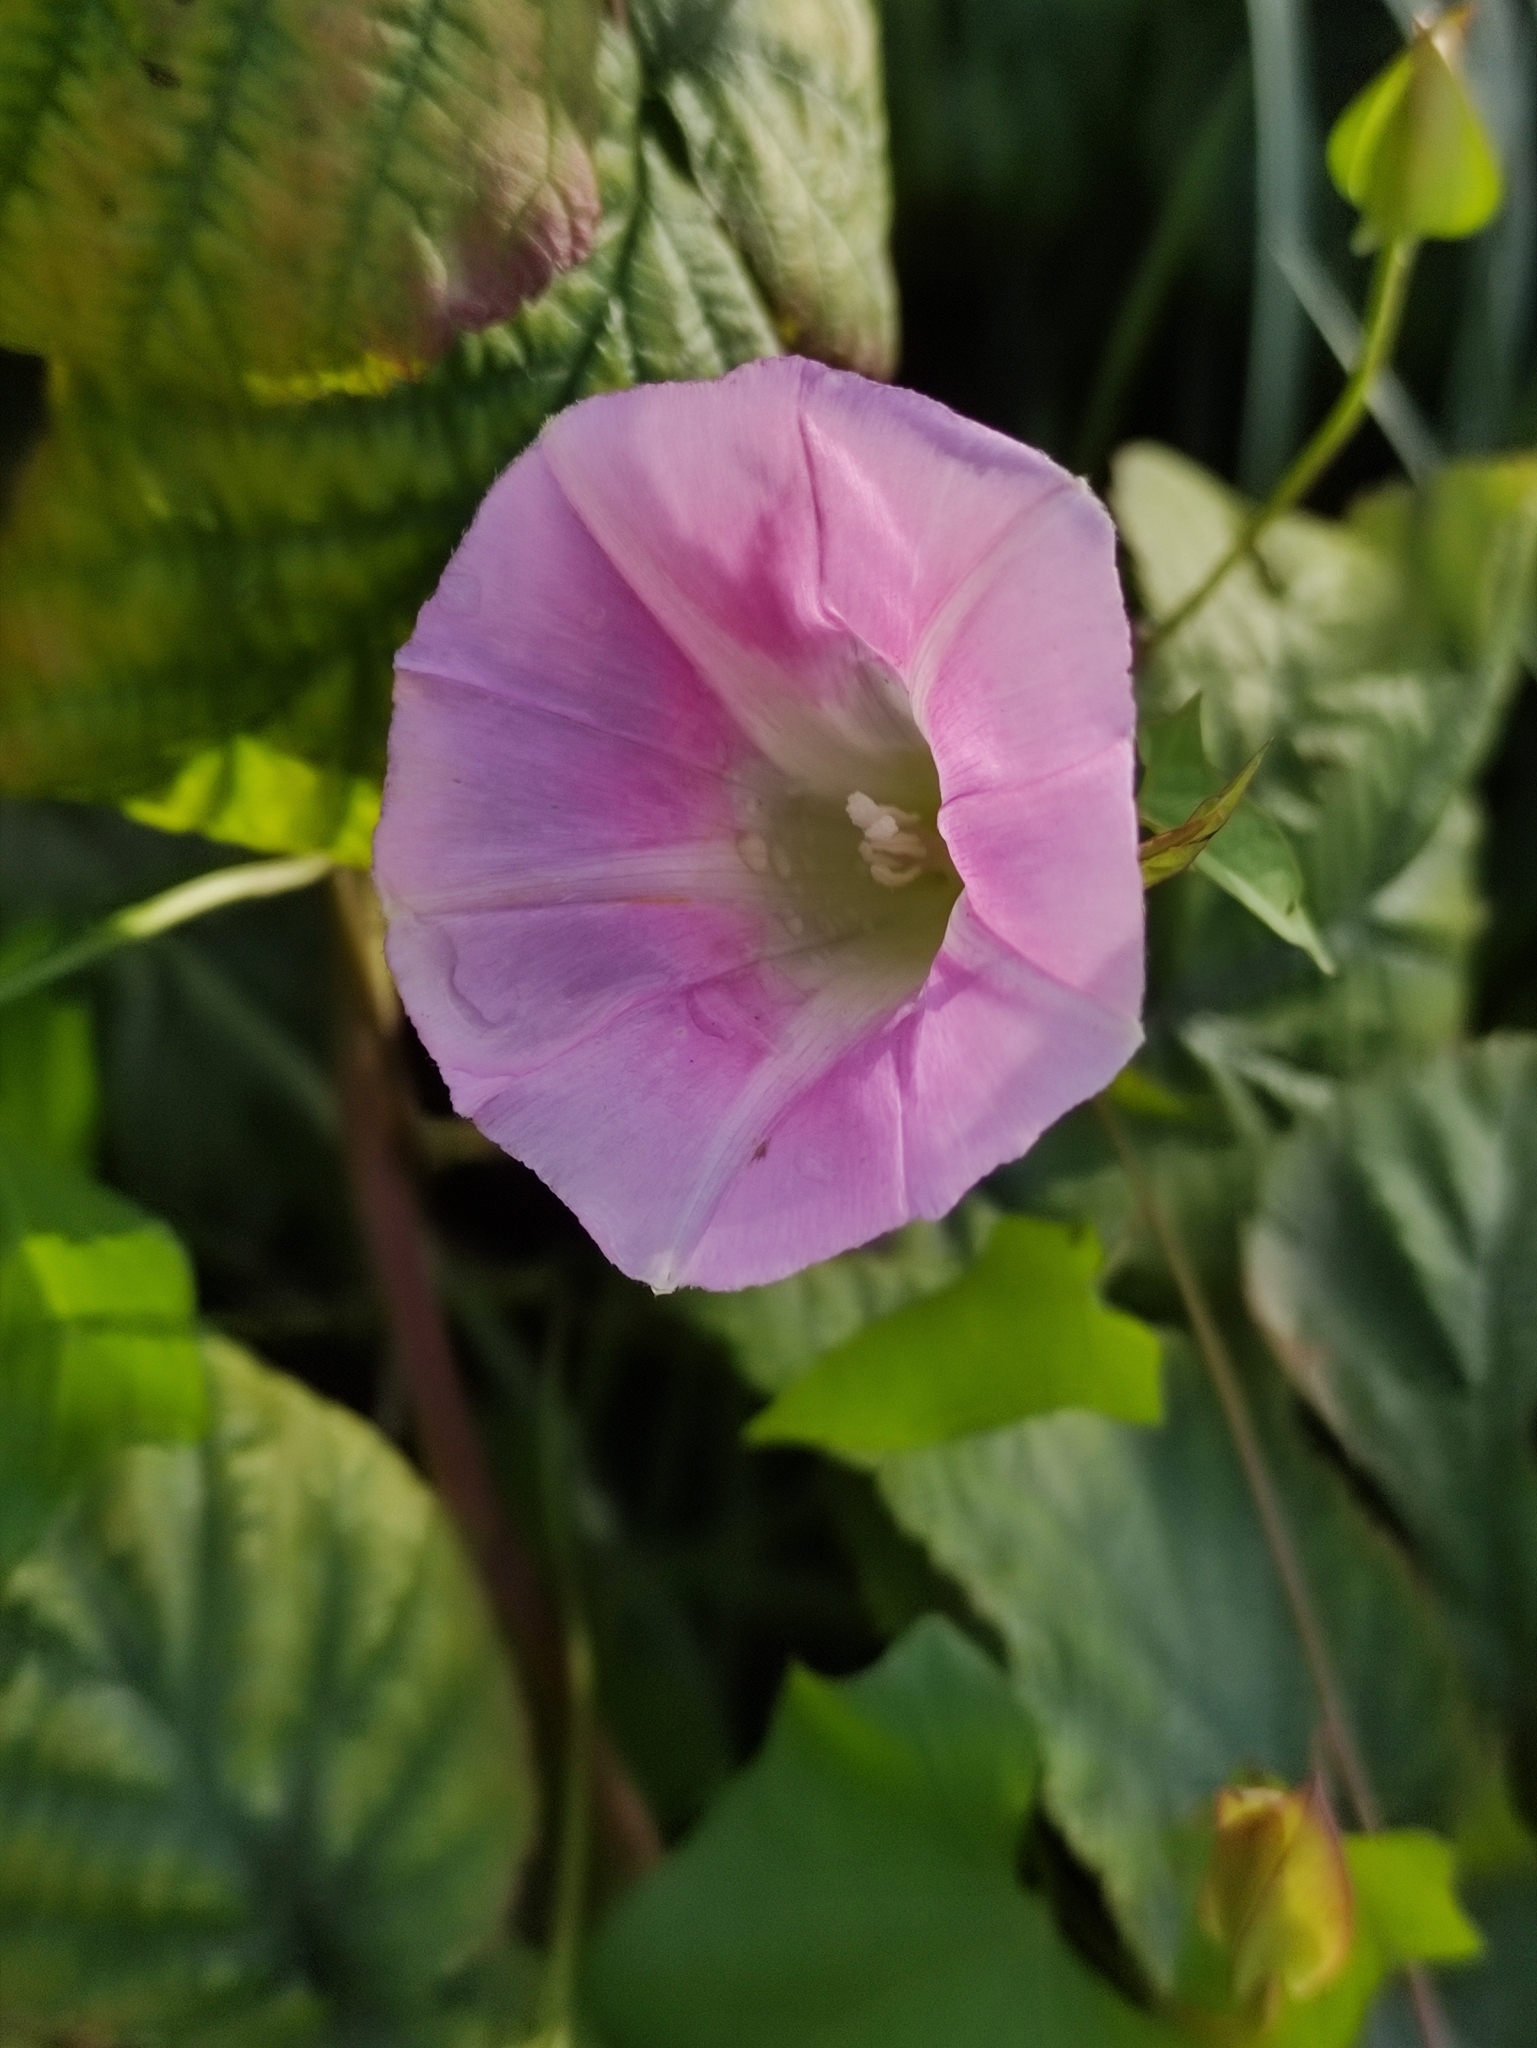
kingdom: Plantae
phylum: Tracheophyta
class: Magnoliopsida
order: Solanales
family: Convolvulaceae
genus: Calystegia
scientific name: Calystegia sepium
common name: Hedge bindweed
